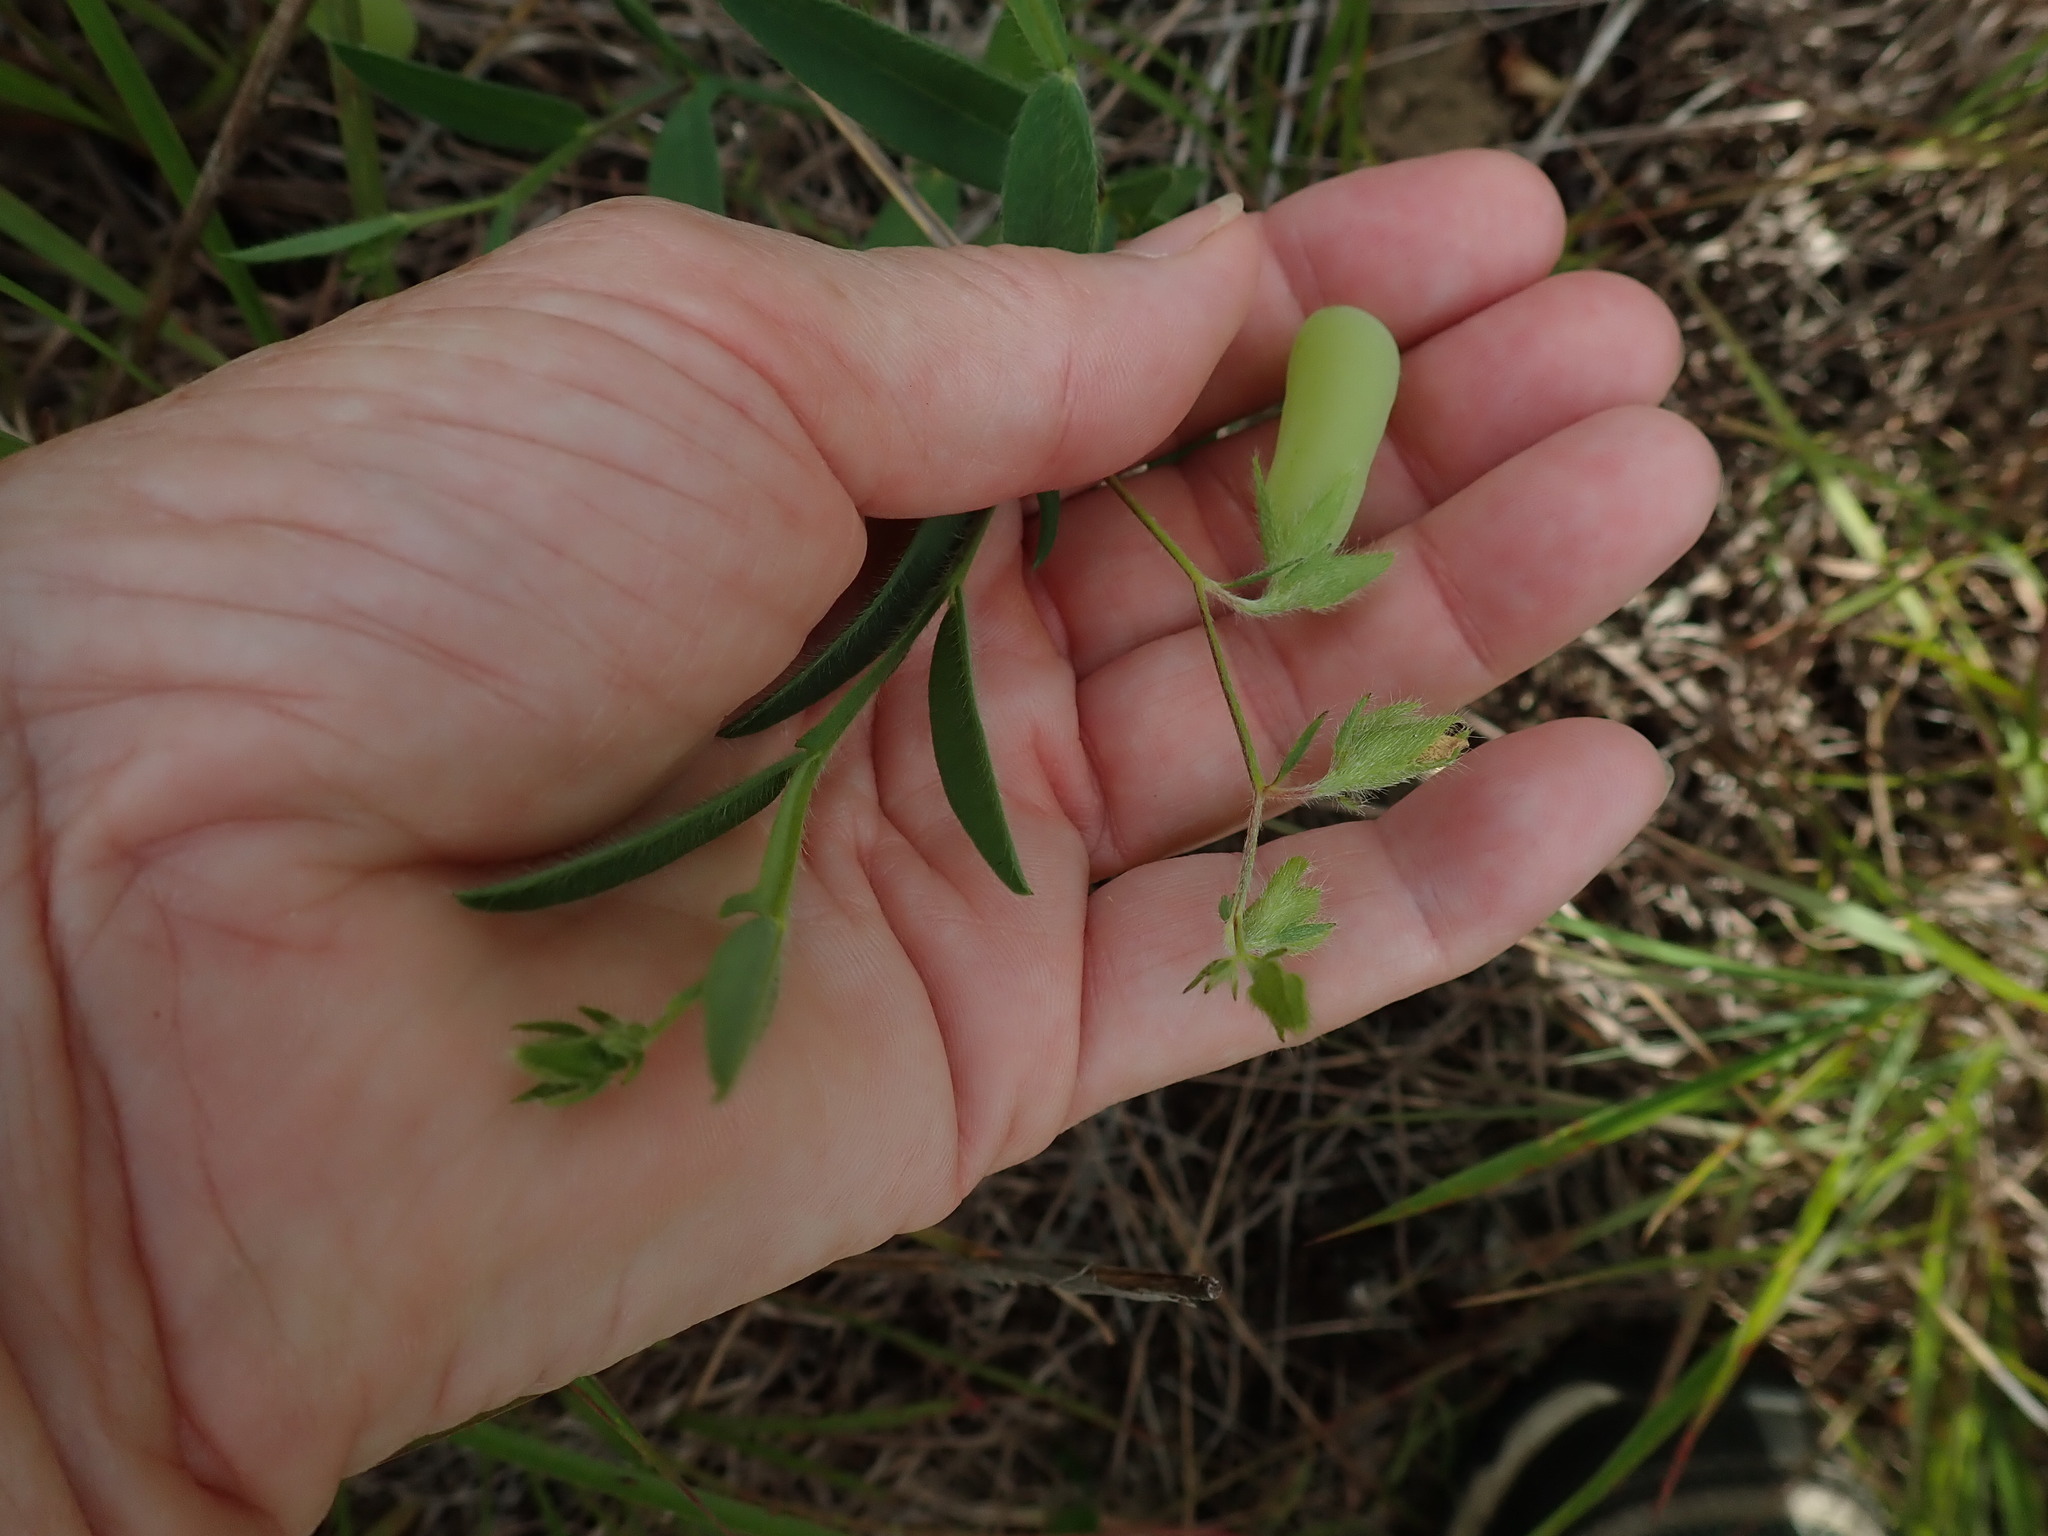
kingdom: Plantae
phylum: Tracheophyta
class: Magnoliopsida
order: Fabales
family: Fabaceae
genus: Crotalaria
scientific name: Crotalaria sagittalis
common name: Arrowhead rattlebox
